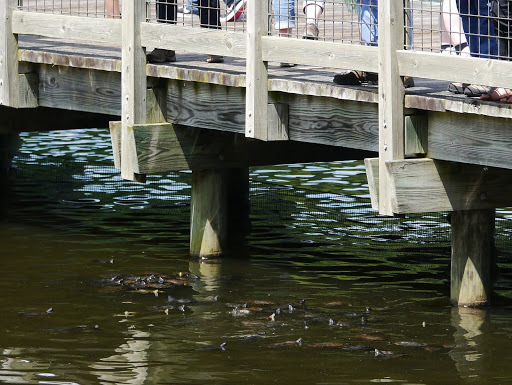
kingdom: Animalia
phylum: Chordata
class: Testudines
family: Emydidae
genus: Trachemys
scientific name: Trachemys scripta
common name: Slider
